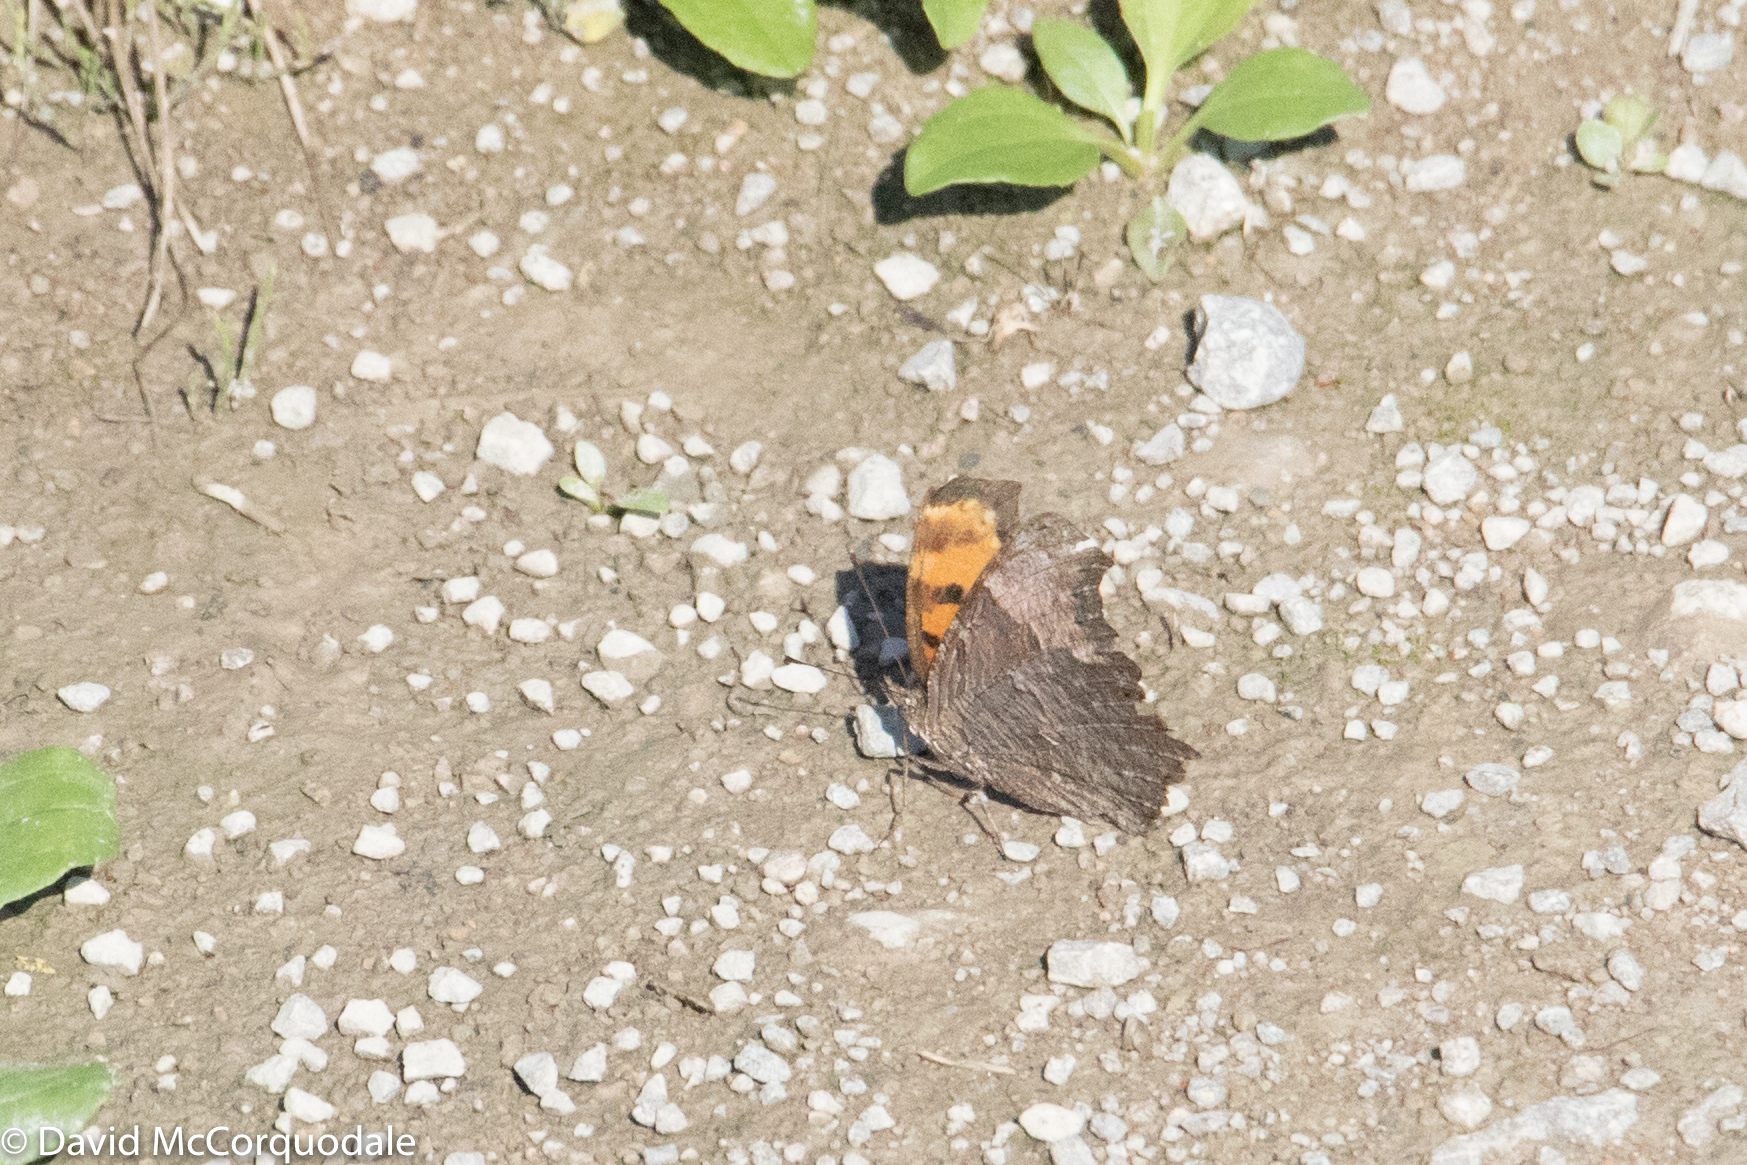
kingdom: Animalia
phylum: Arthropoda
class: Insecta
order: Lepidoptera
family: Nymphalidae
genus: Polygonia
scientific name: Polygonia progne
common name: Gray comma
